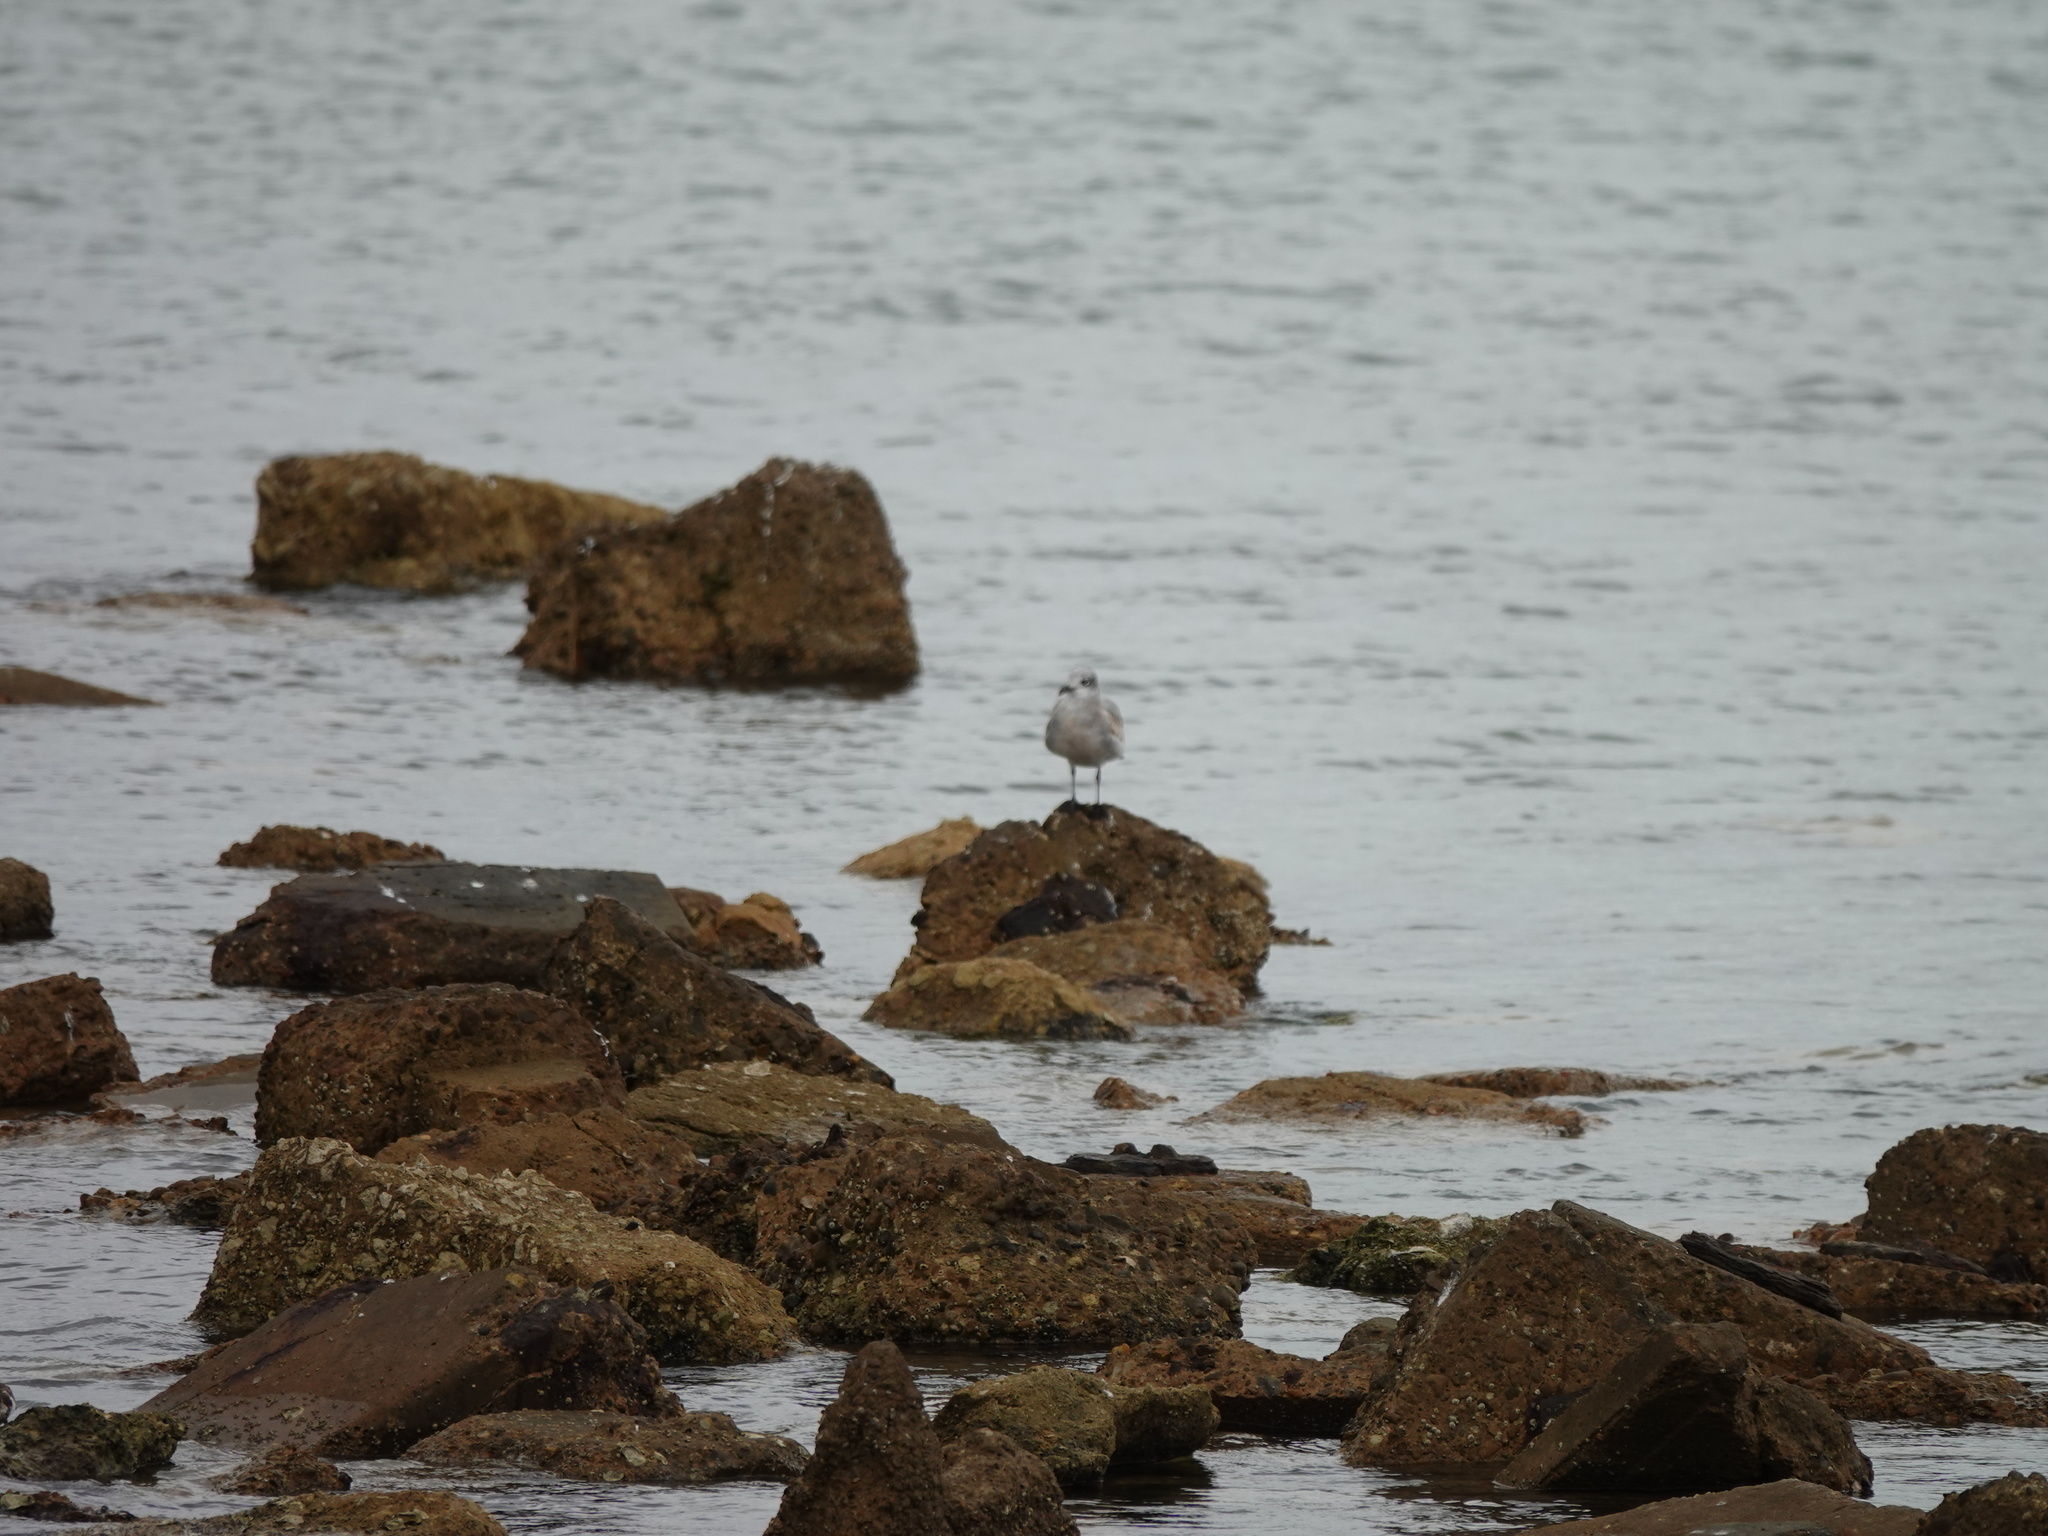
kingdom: Animalia
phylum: Chordata
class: Aves
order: Charadriiformes
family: Laridae
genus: Leucophaeus
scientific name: Leucophaeus atricilla
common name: Laughing gull
